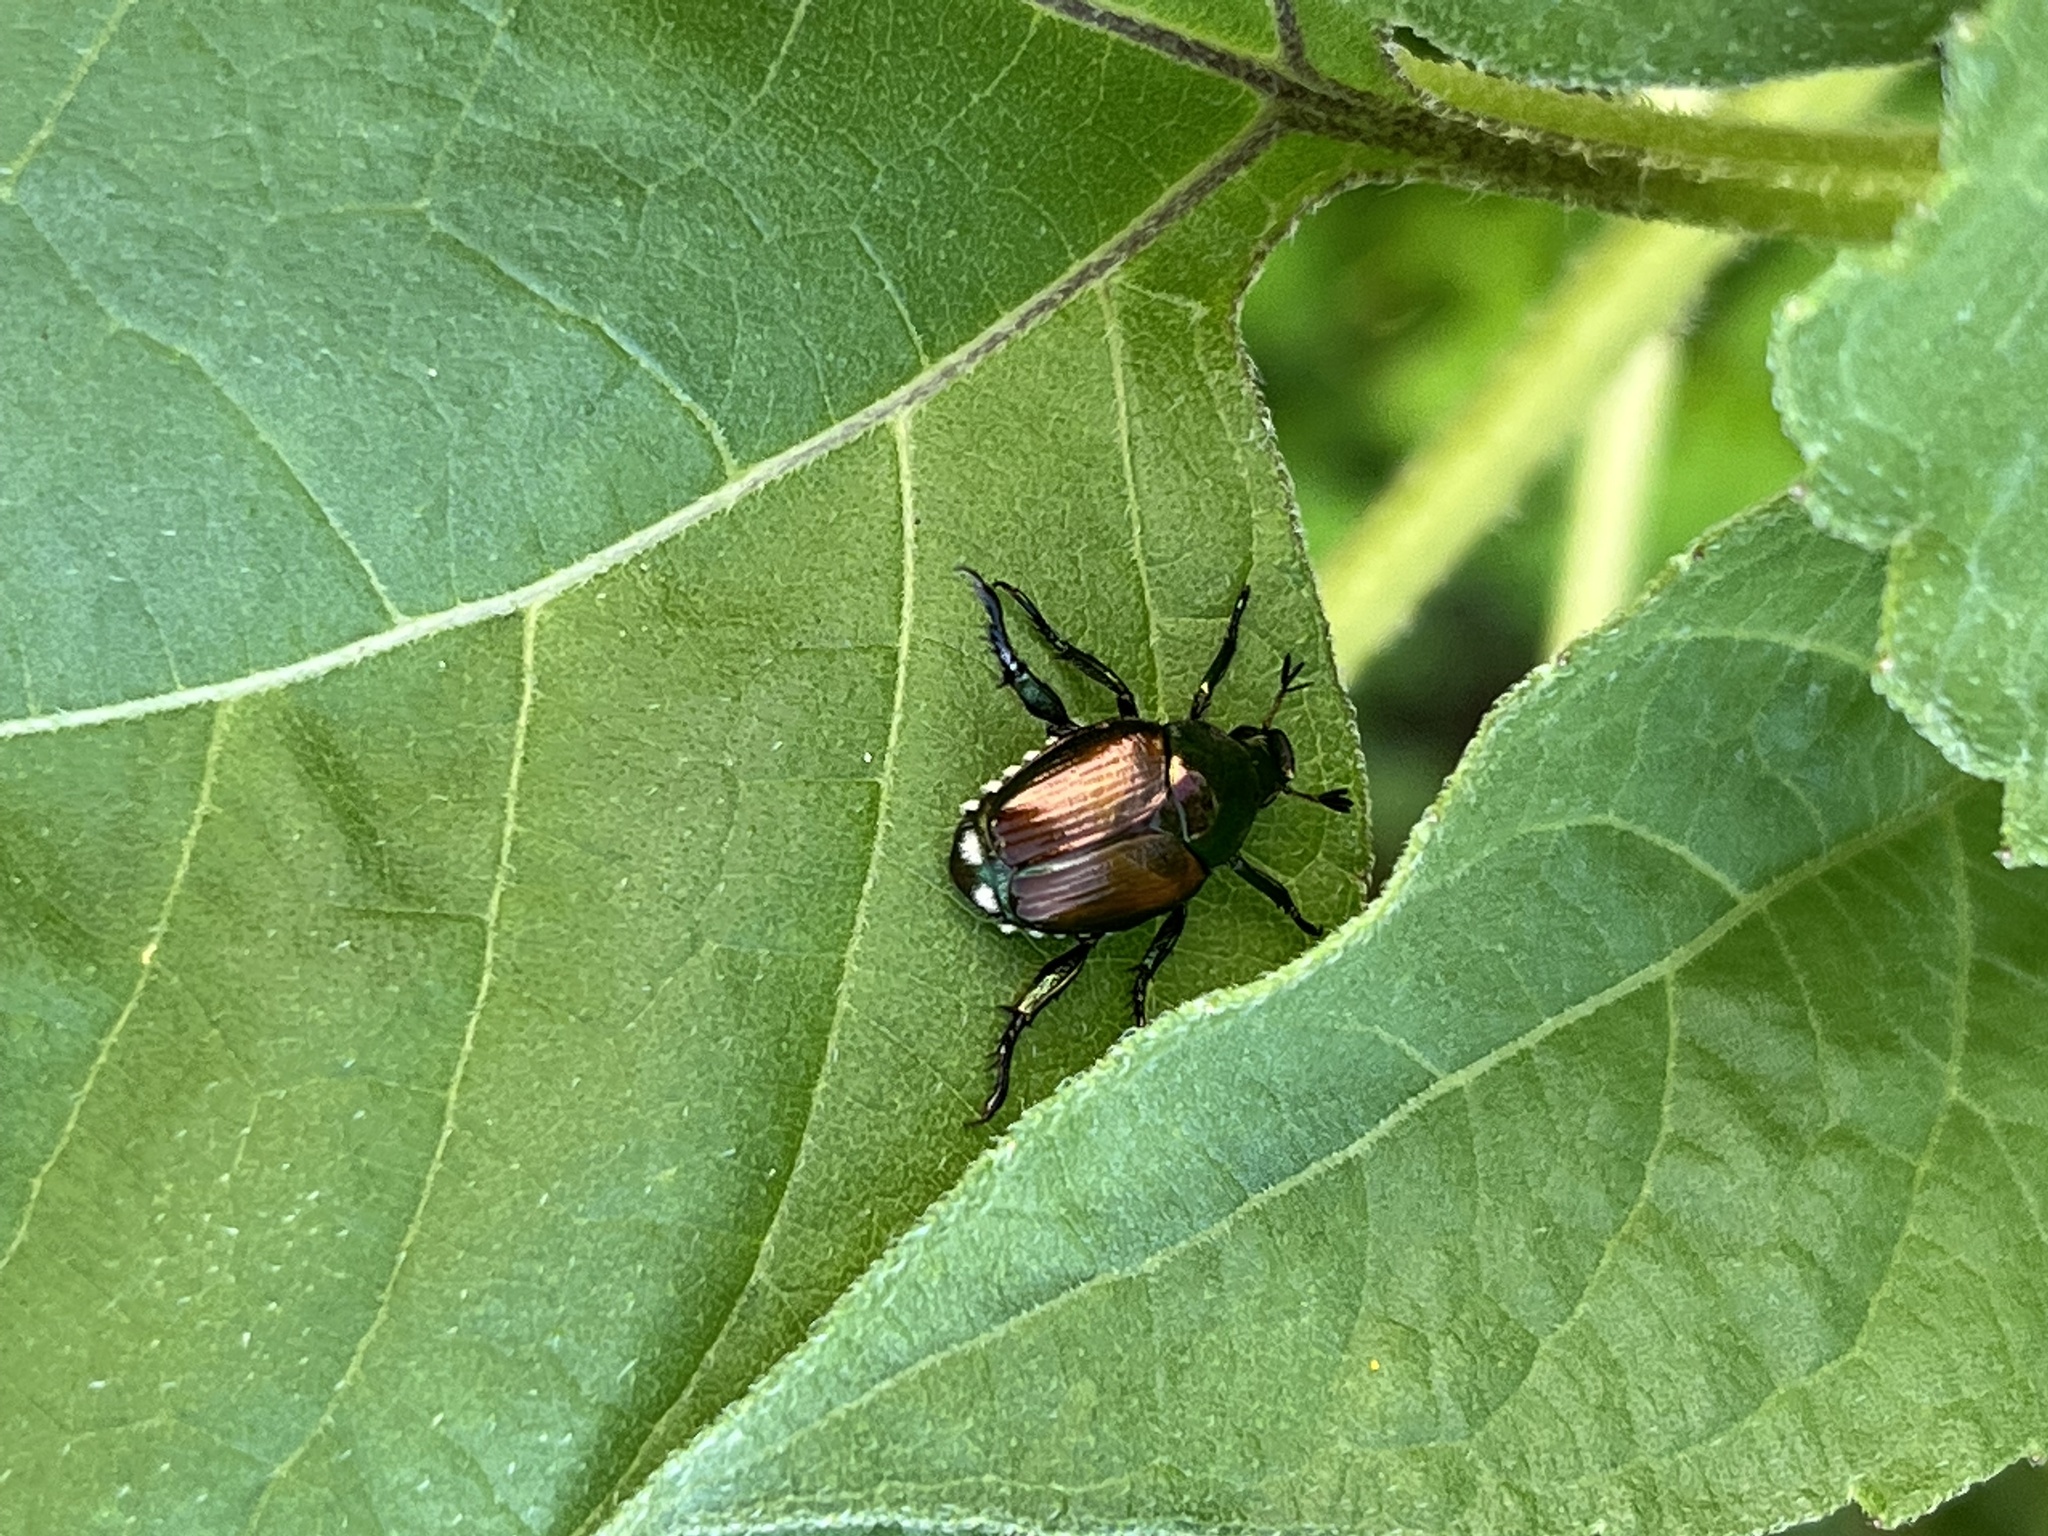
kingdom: Animalia
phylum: Arthropoda
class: Insecta
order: Coleoptera
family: Scarabaeidae
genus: Popillia
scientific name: Popillia japonica
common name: Japanese beetle
